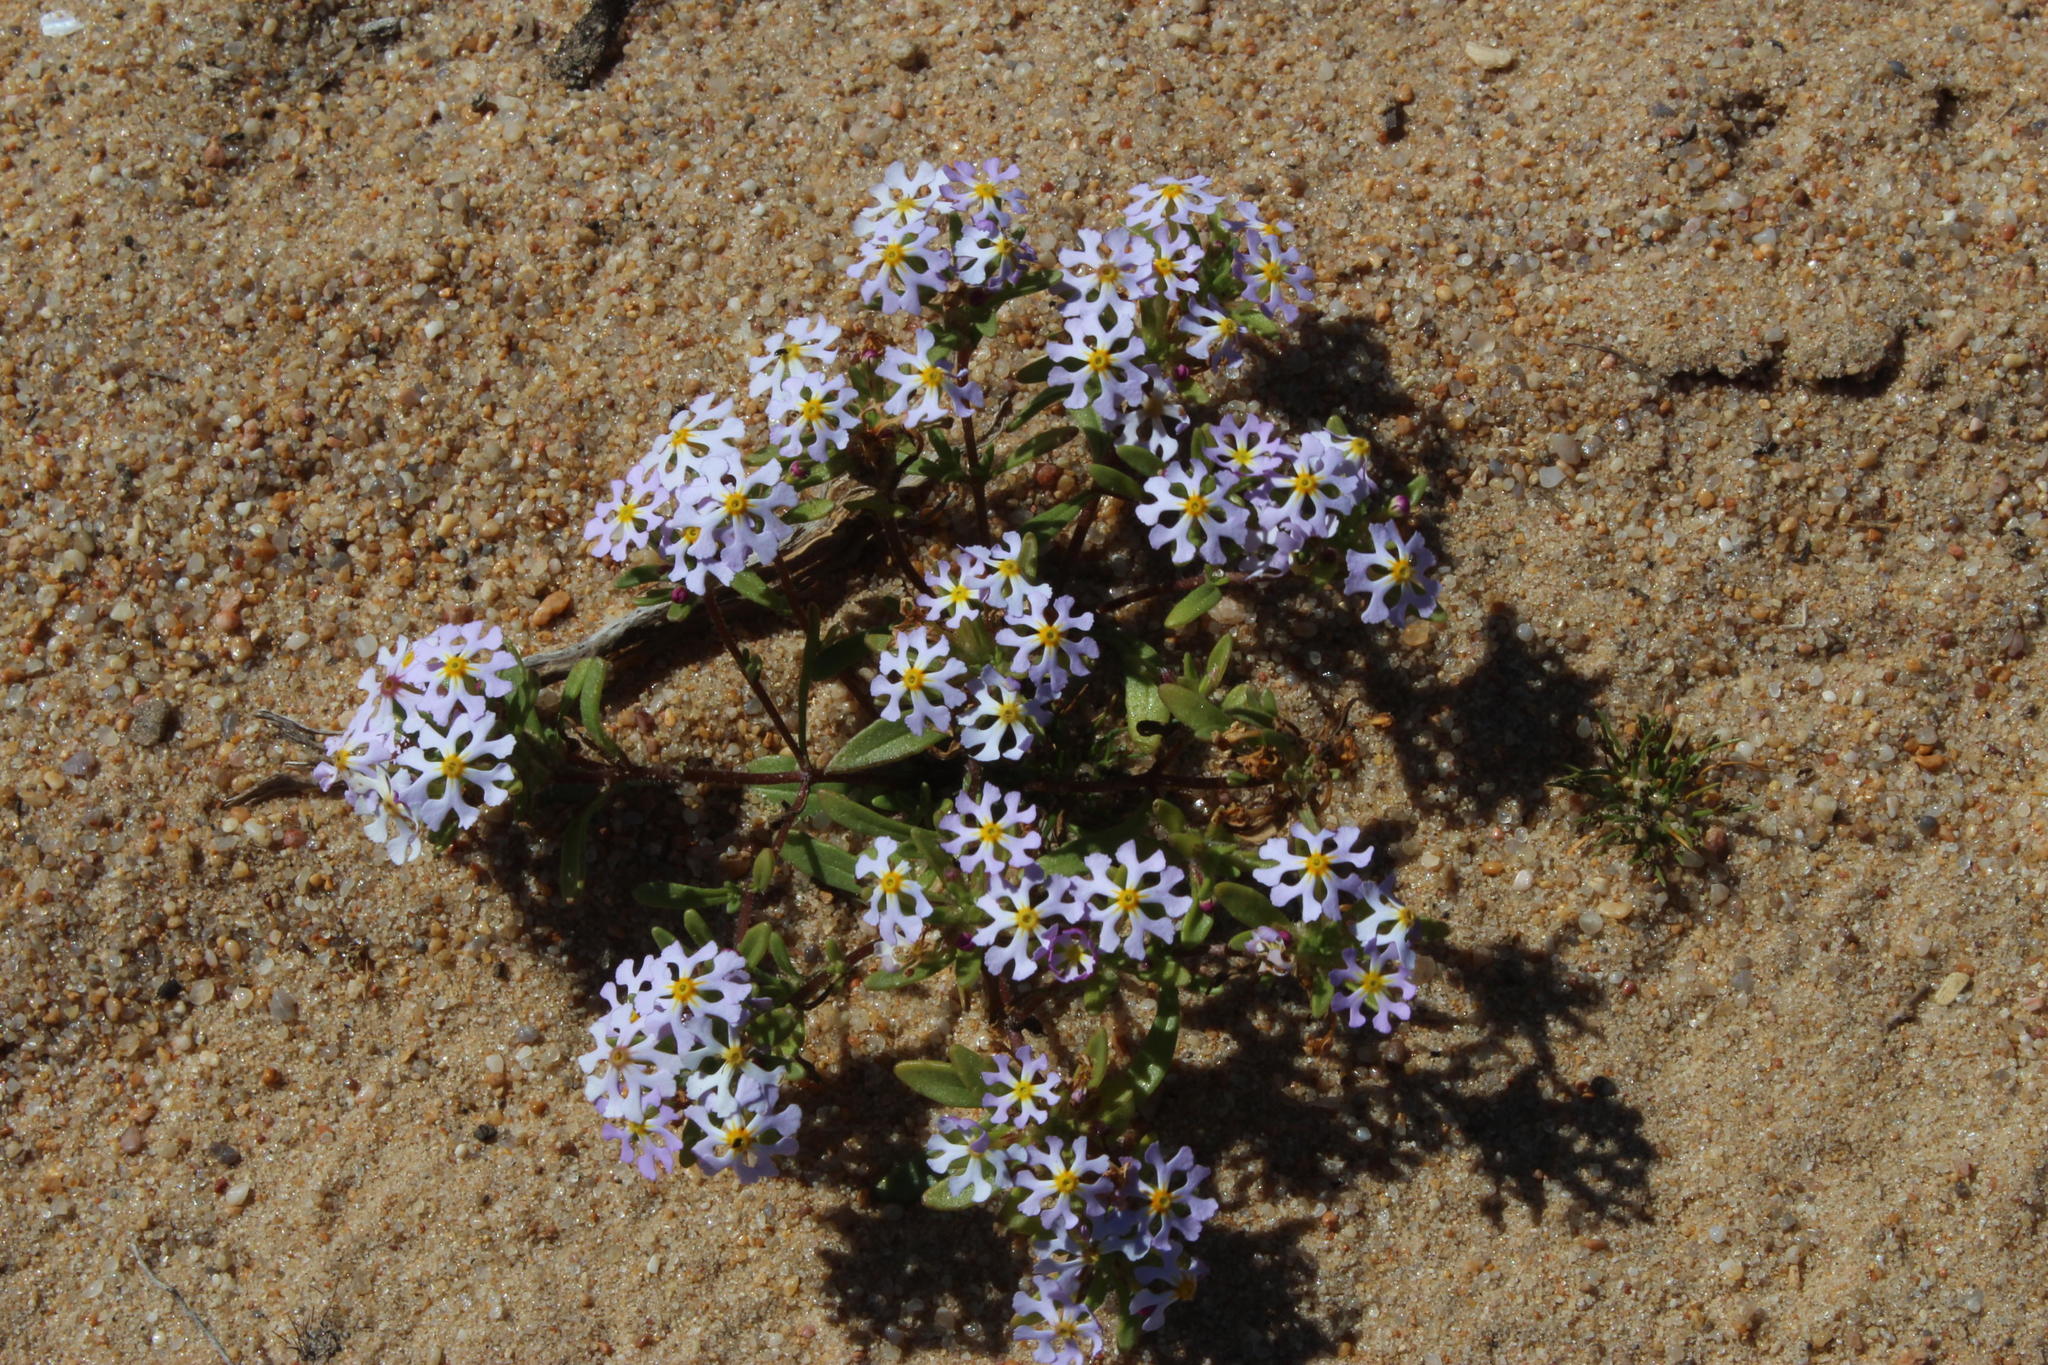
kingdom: Plantae
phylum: Tracheophyta
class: Magnoliopsida
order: Lamiales
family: Scrophulariaceae
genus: Zaluzianskya
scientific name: Zaluzianskya affinis
